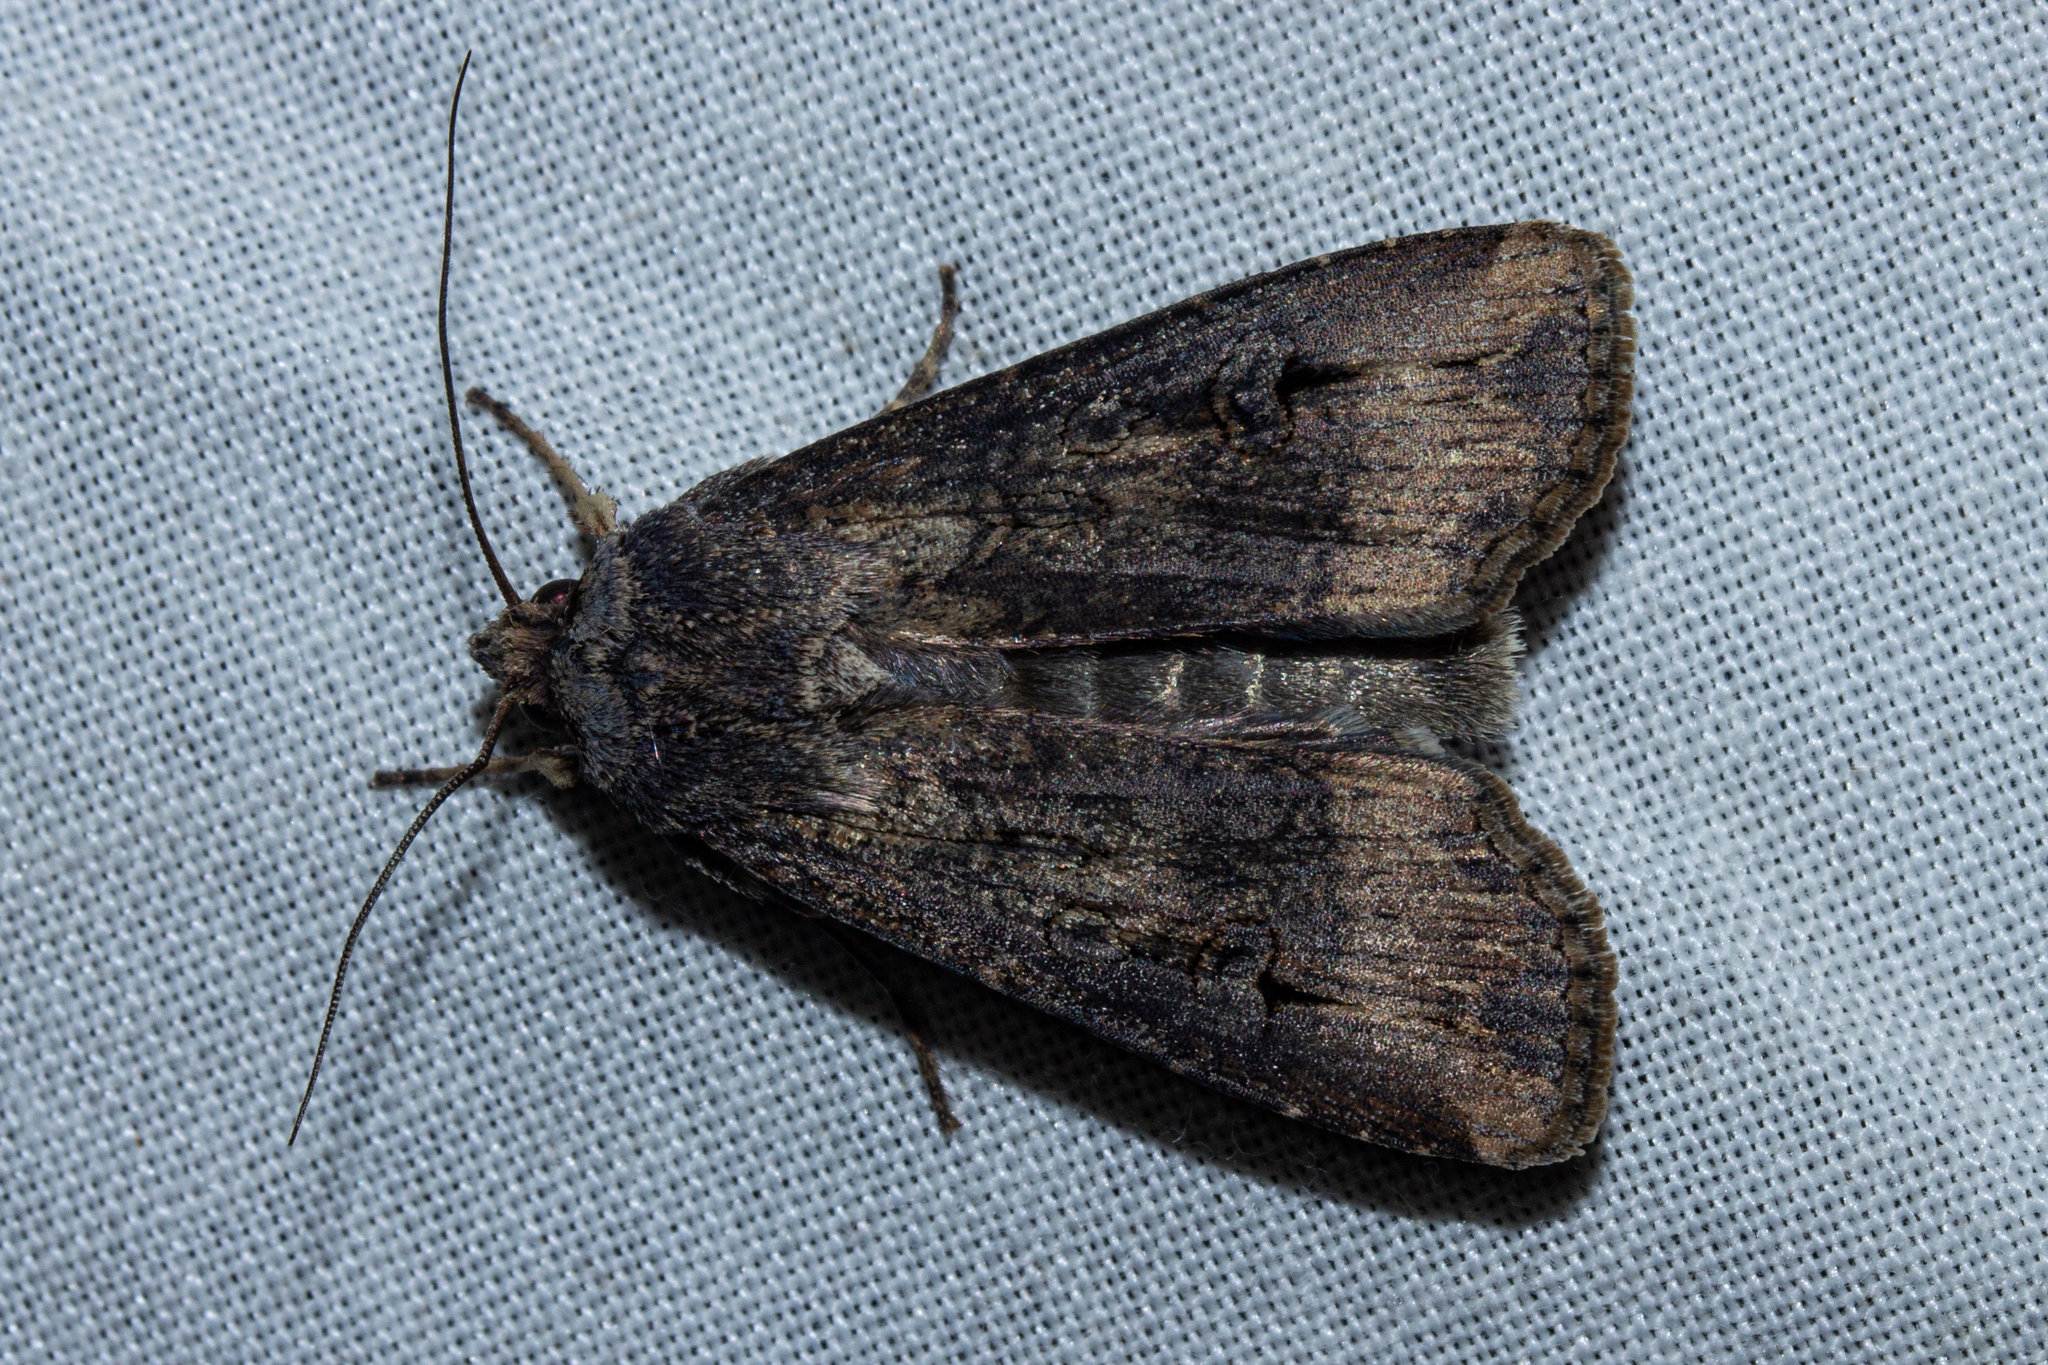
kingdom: Animalia
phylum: Arthropoda
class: Insecta
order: Lepidoptera
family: Noctuidae
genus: Agrotis
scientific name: Agrotis ipsilon
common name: Dark sword-grass
